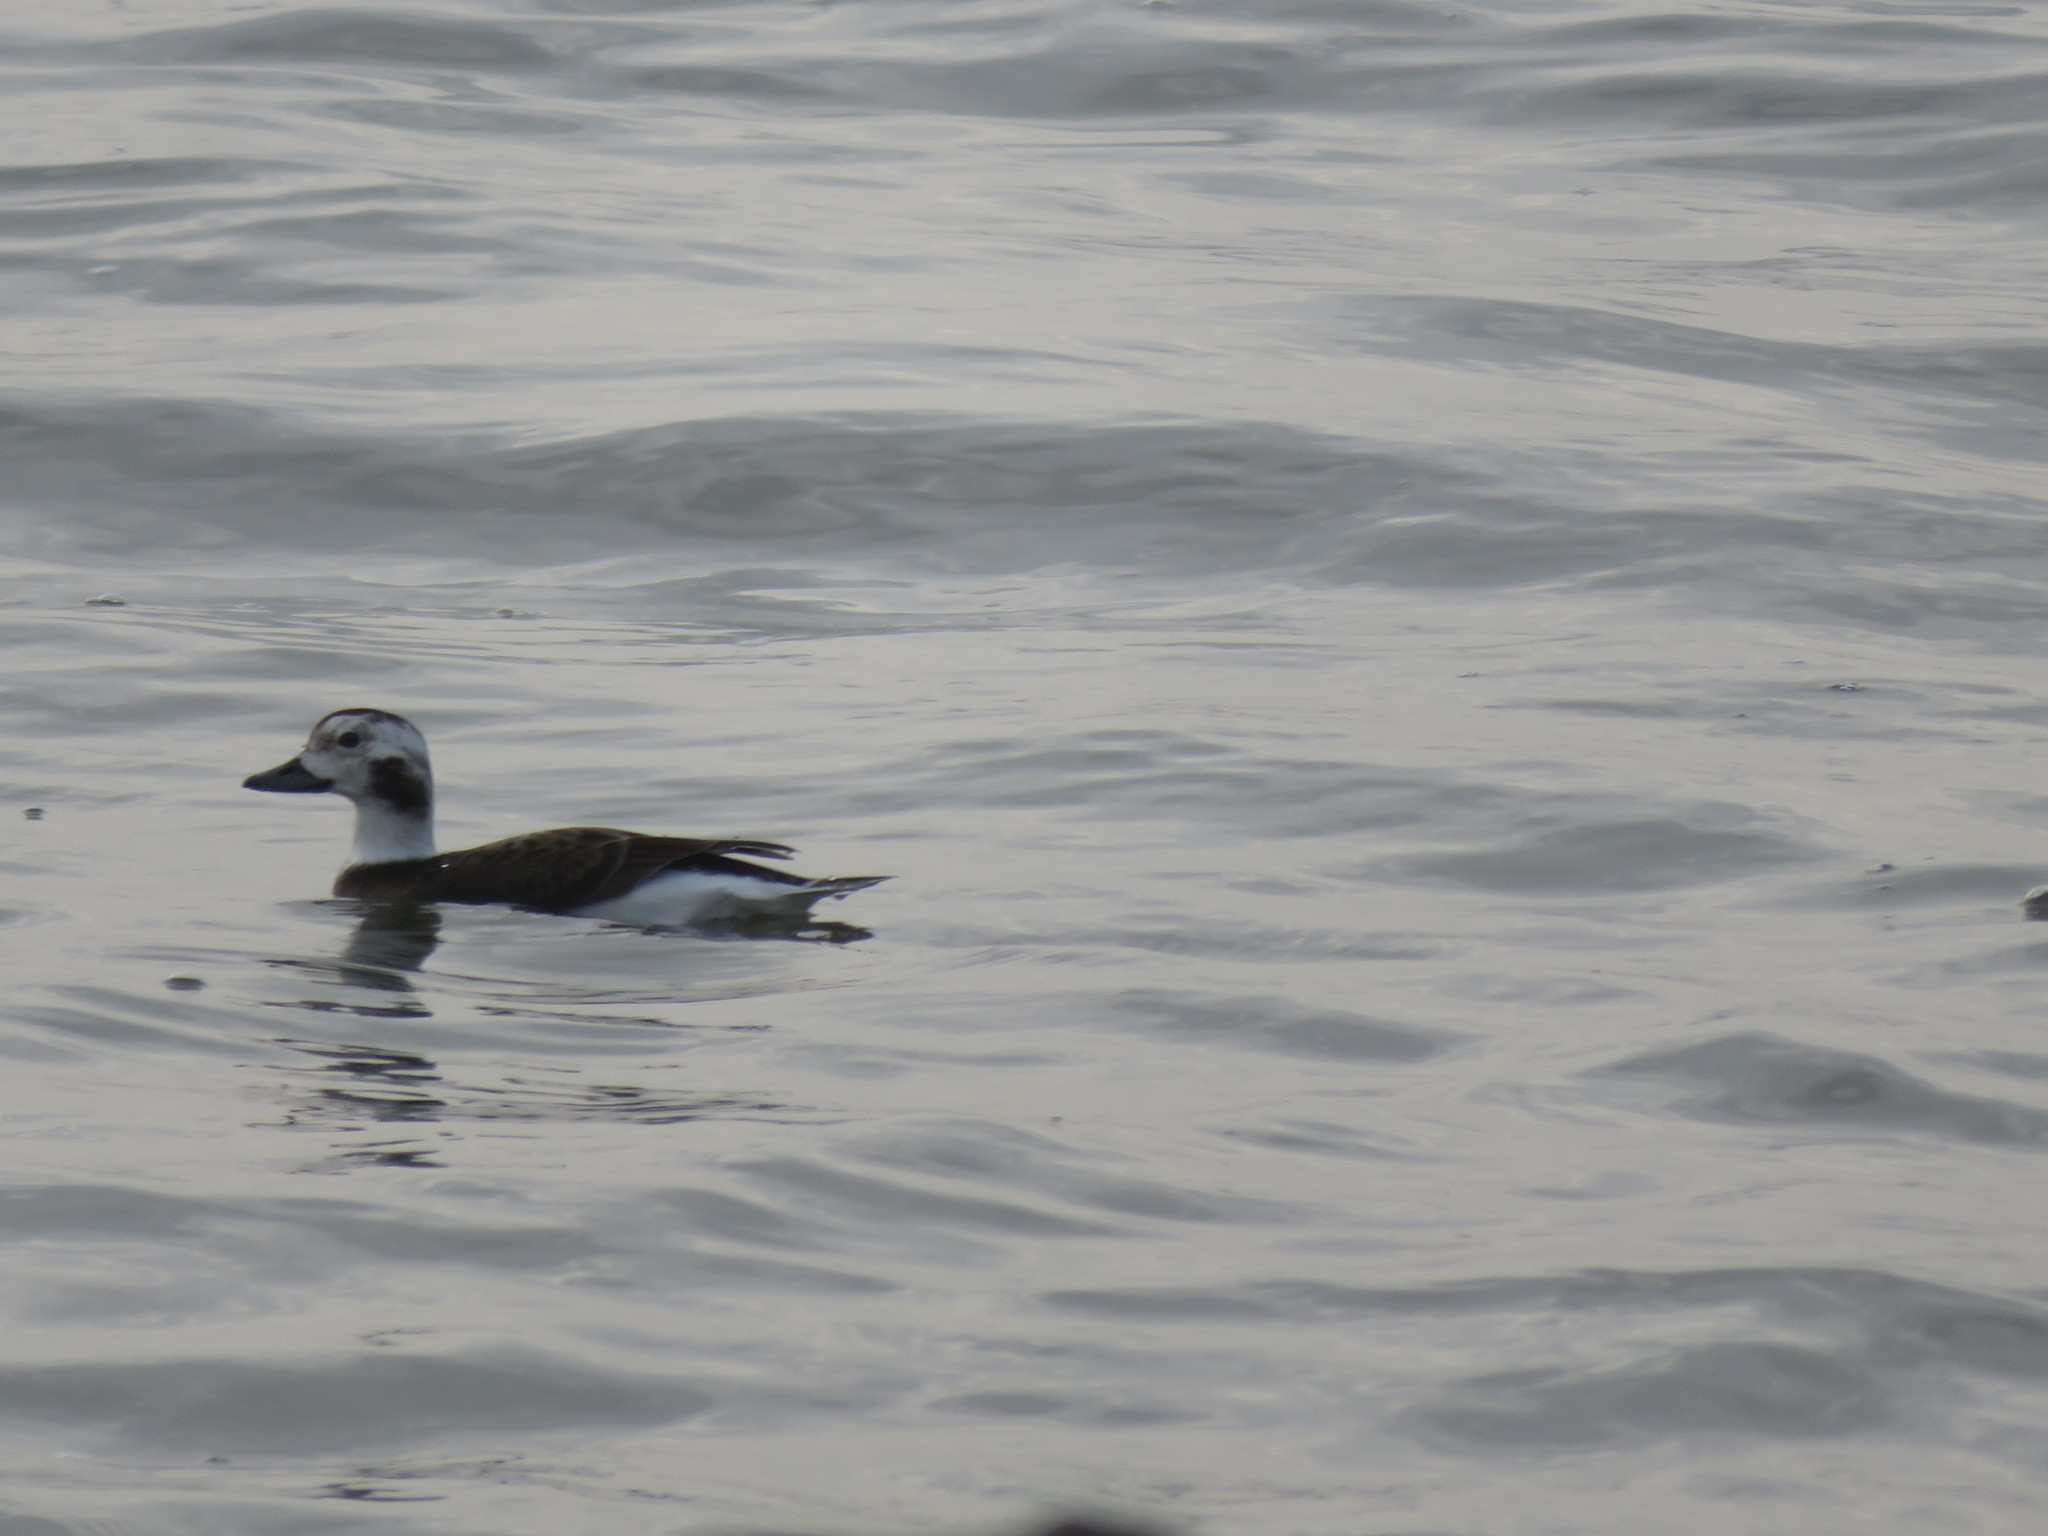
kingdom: Animalia
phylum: Chordata
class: Aves
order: Anseriformes
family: Anatidae
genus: Clangula
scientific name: Clangula hyemalis
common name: Long-tailed duck
